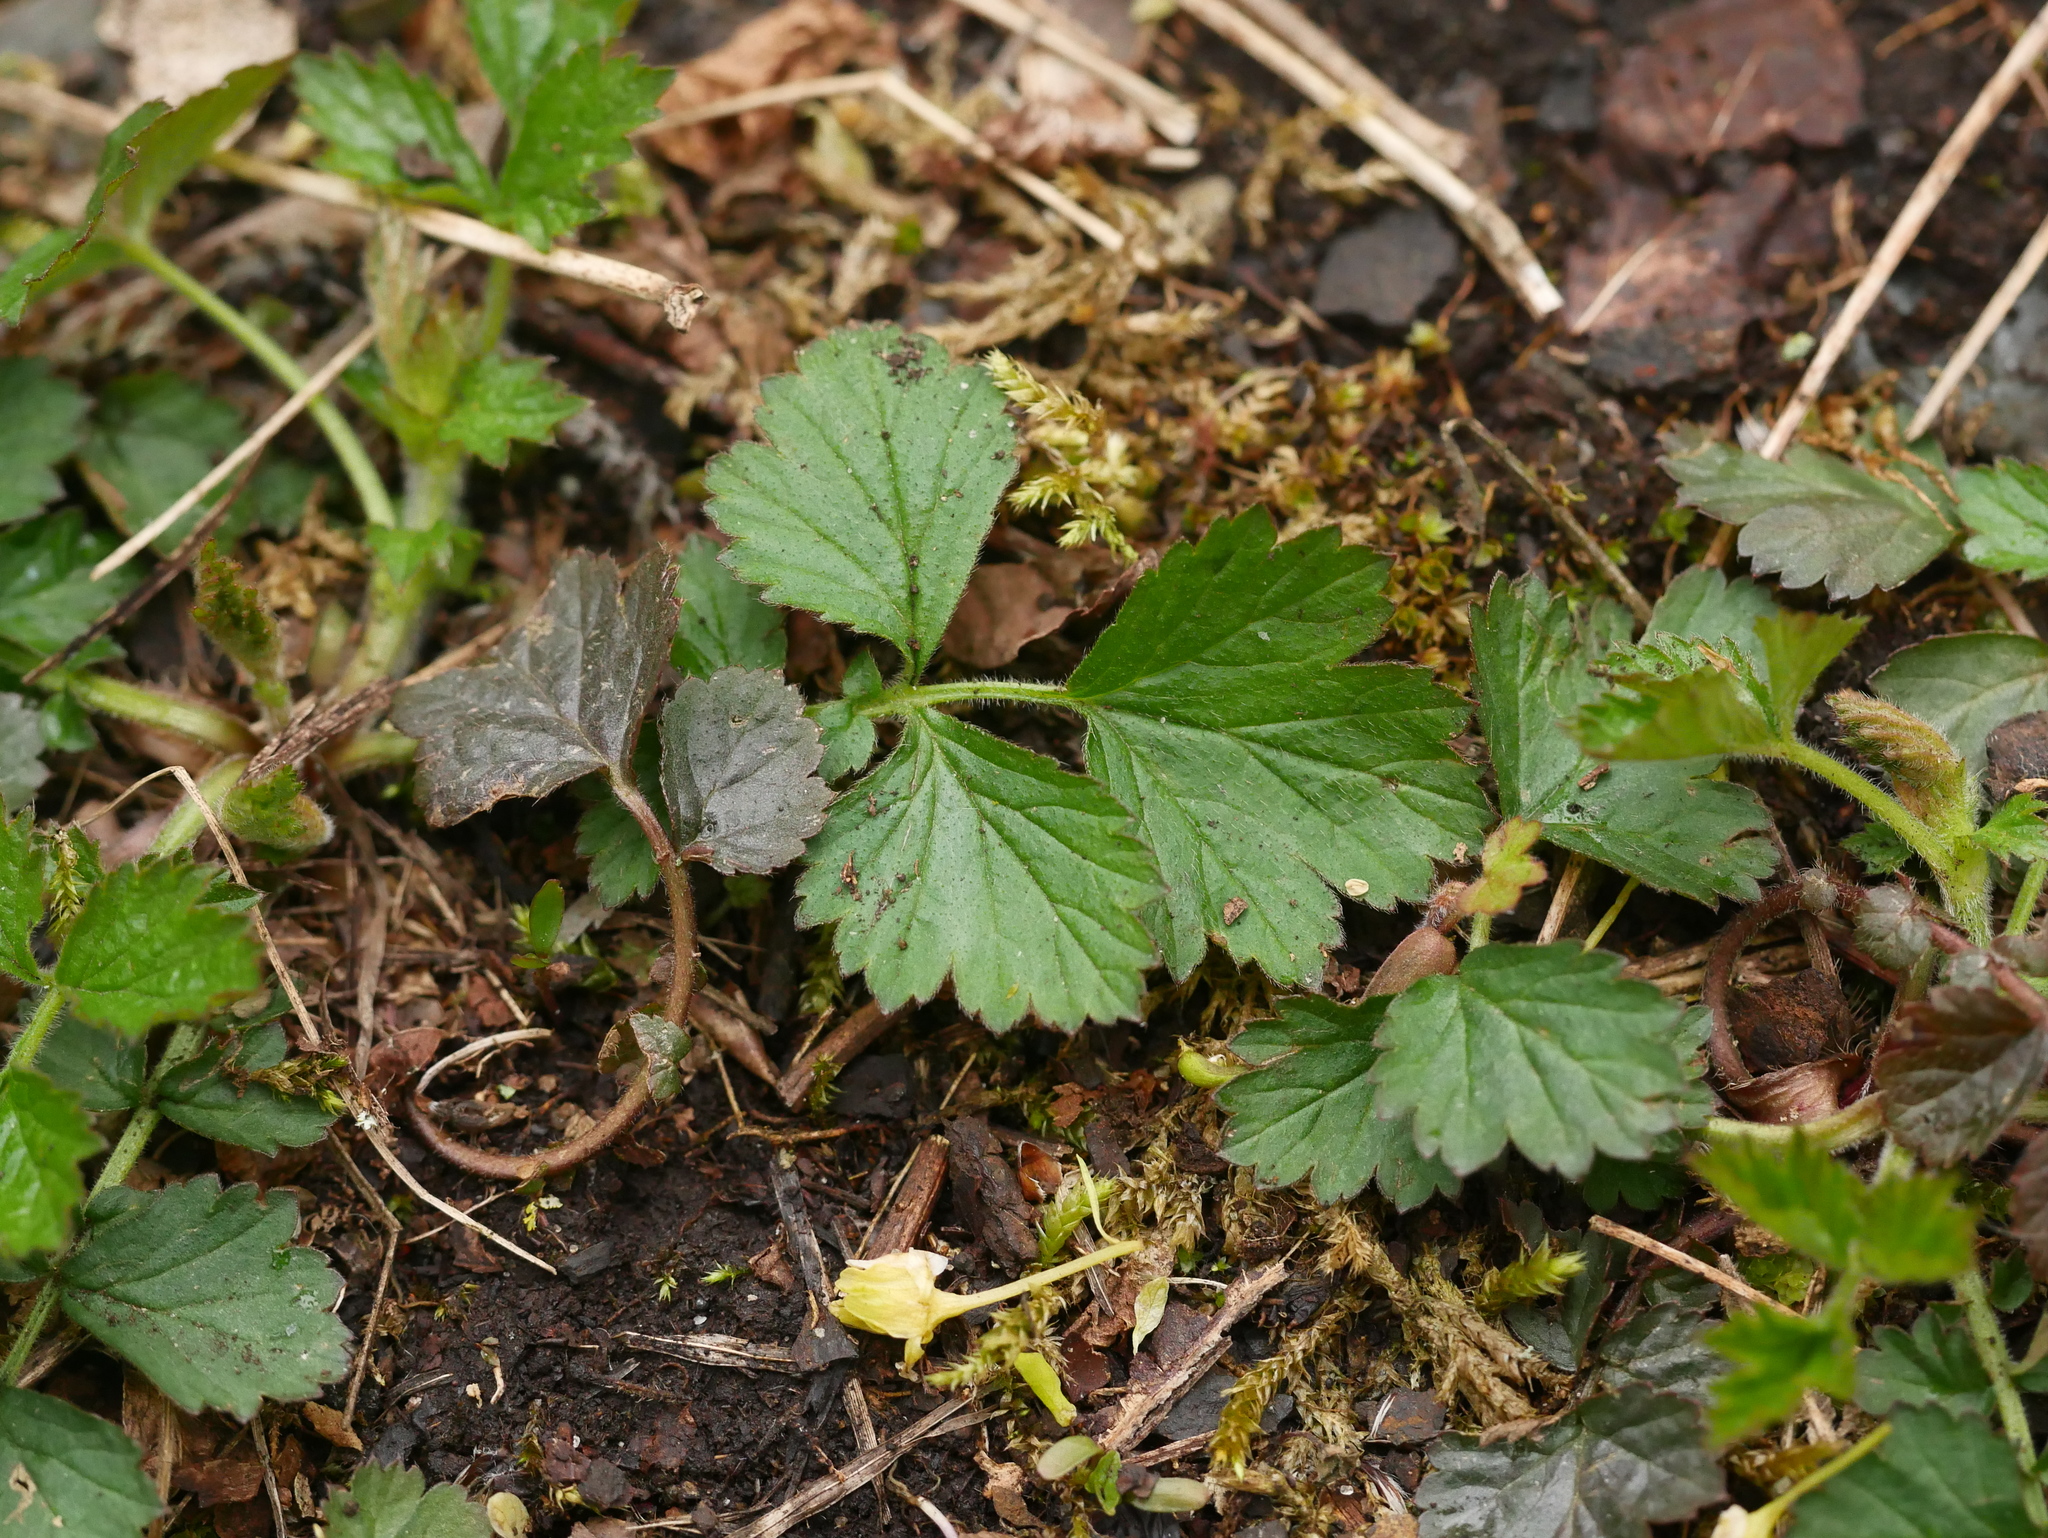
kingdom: Plantae
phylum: Tracheophyta
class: Magnoliopsida
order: Rosales
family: Rosaceae
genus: Geum
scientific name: Geum urbanum
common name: Wood avens
